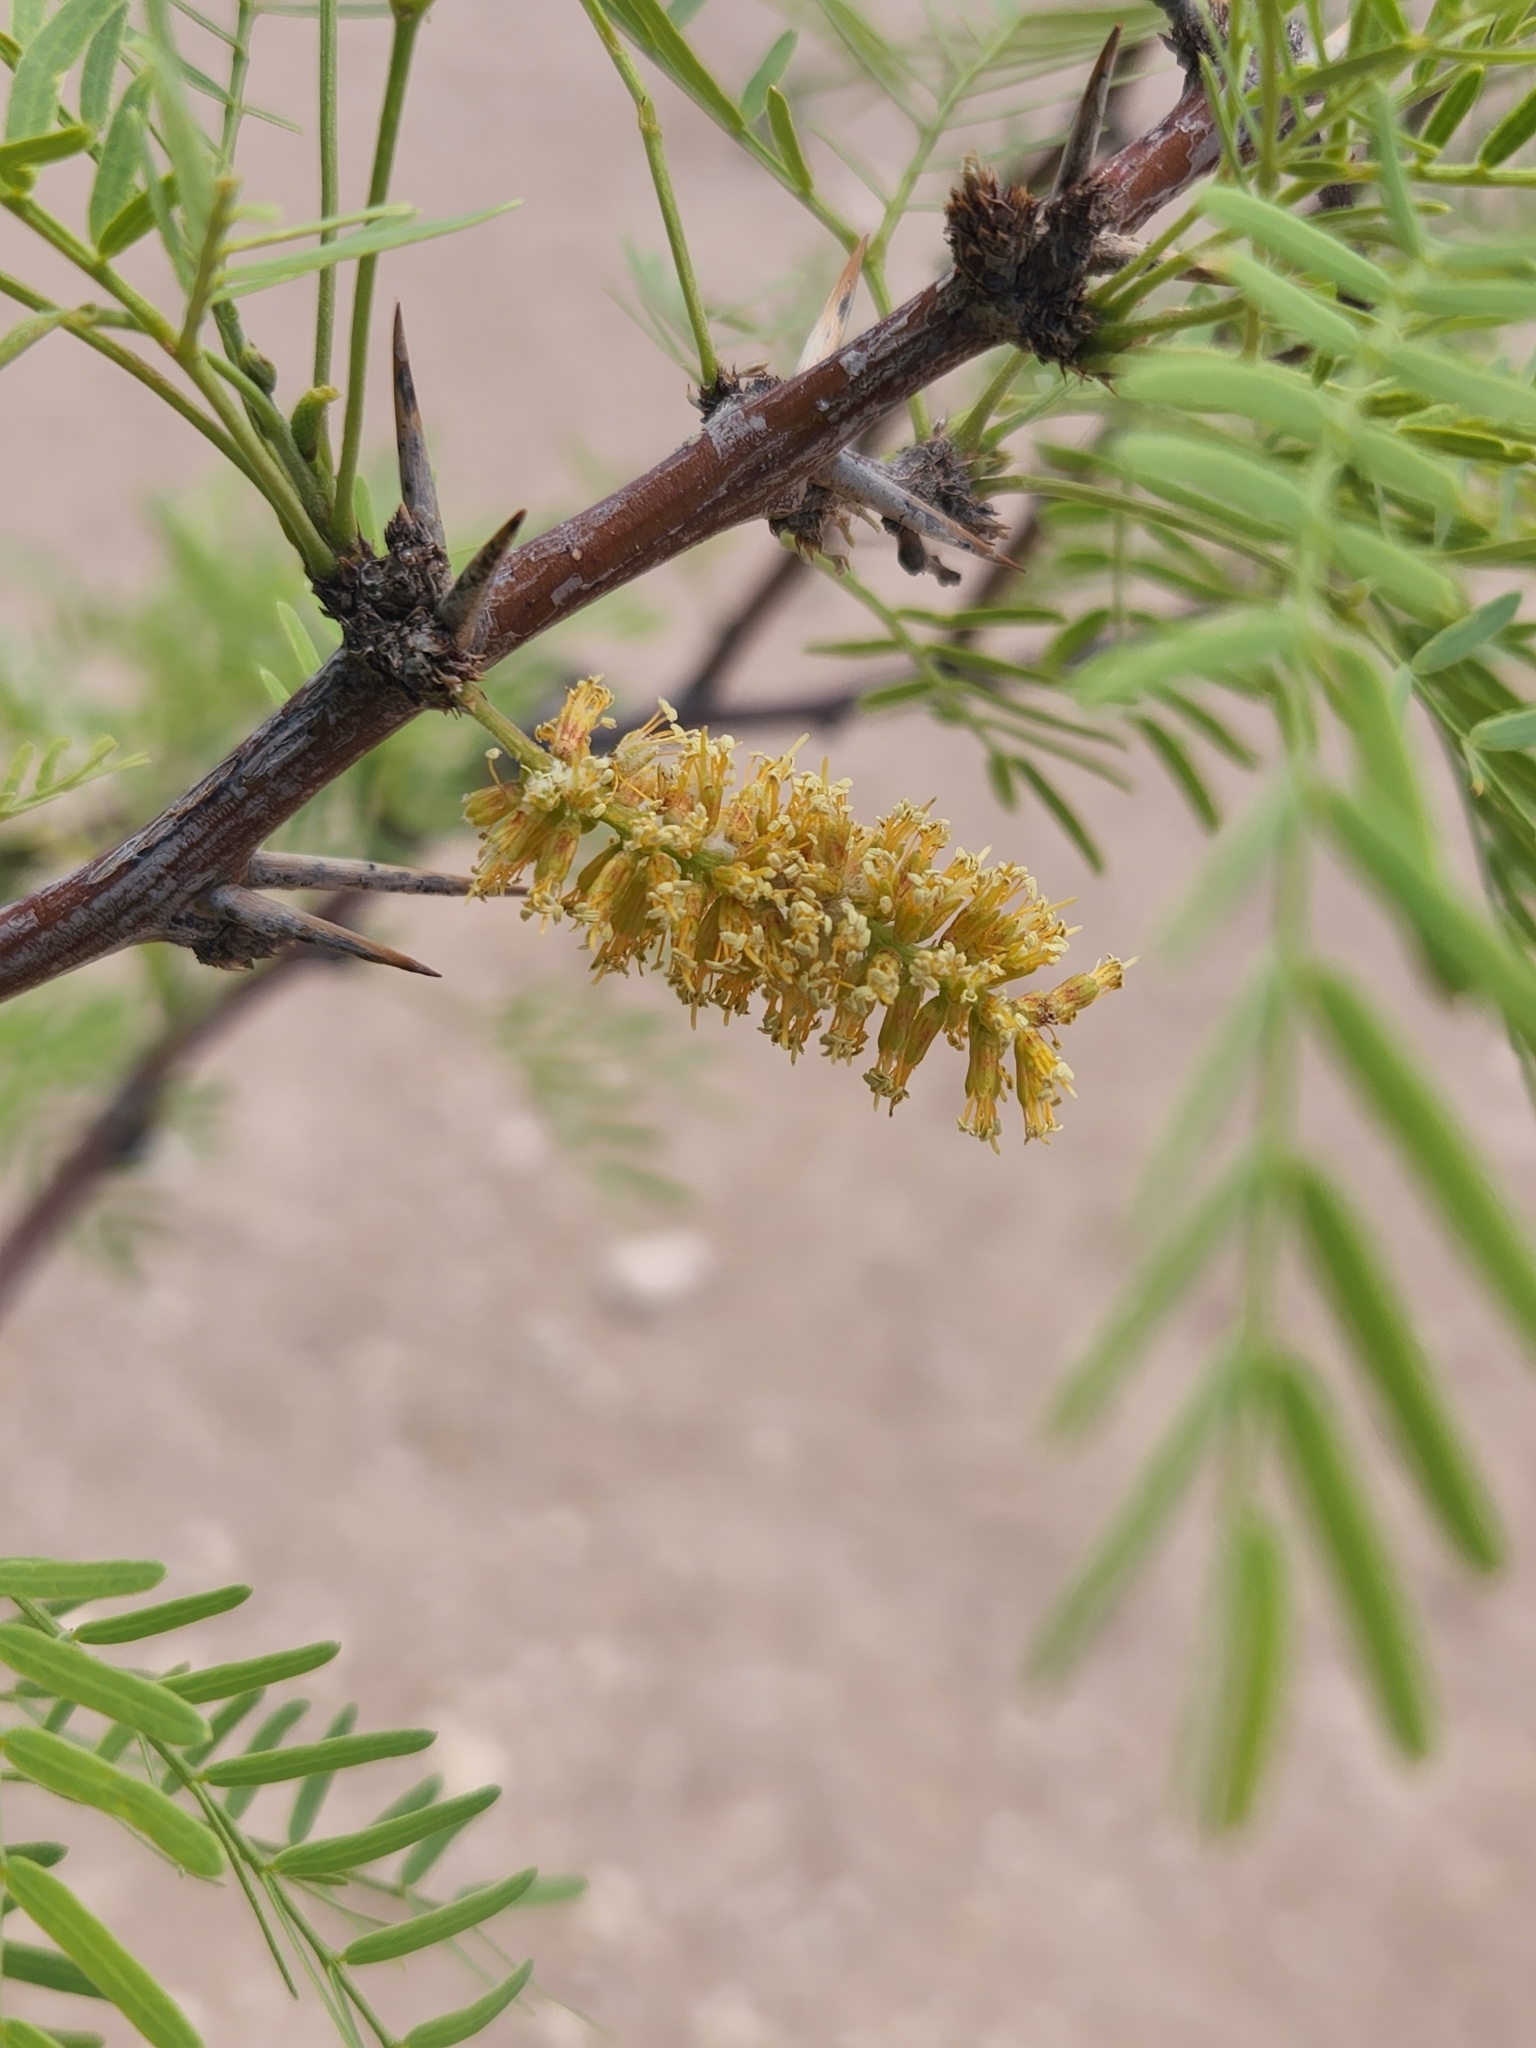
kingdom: Plantae
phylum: Tracheophyta
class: Magnoliopsida
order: Fabales
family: Fabaceae
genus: Prosopis
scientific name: Prosopis glandulosa
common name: Honey mesquite
